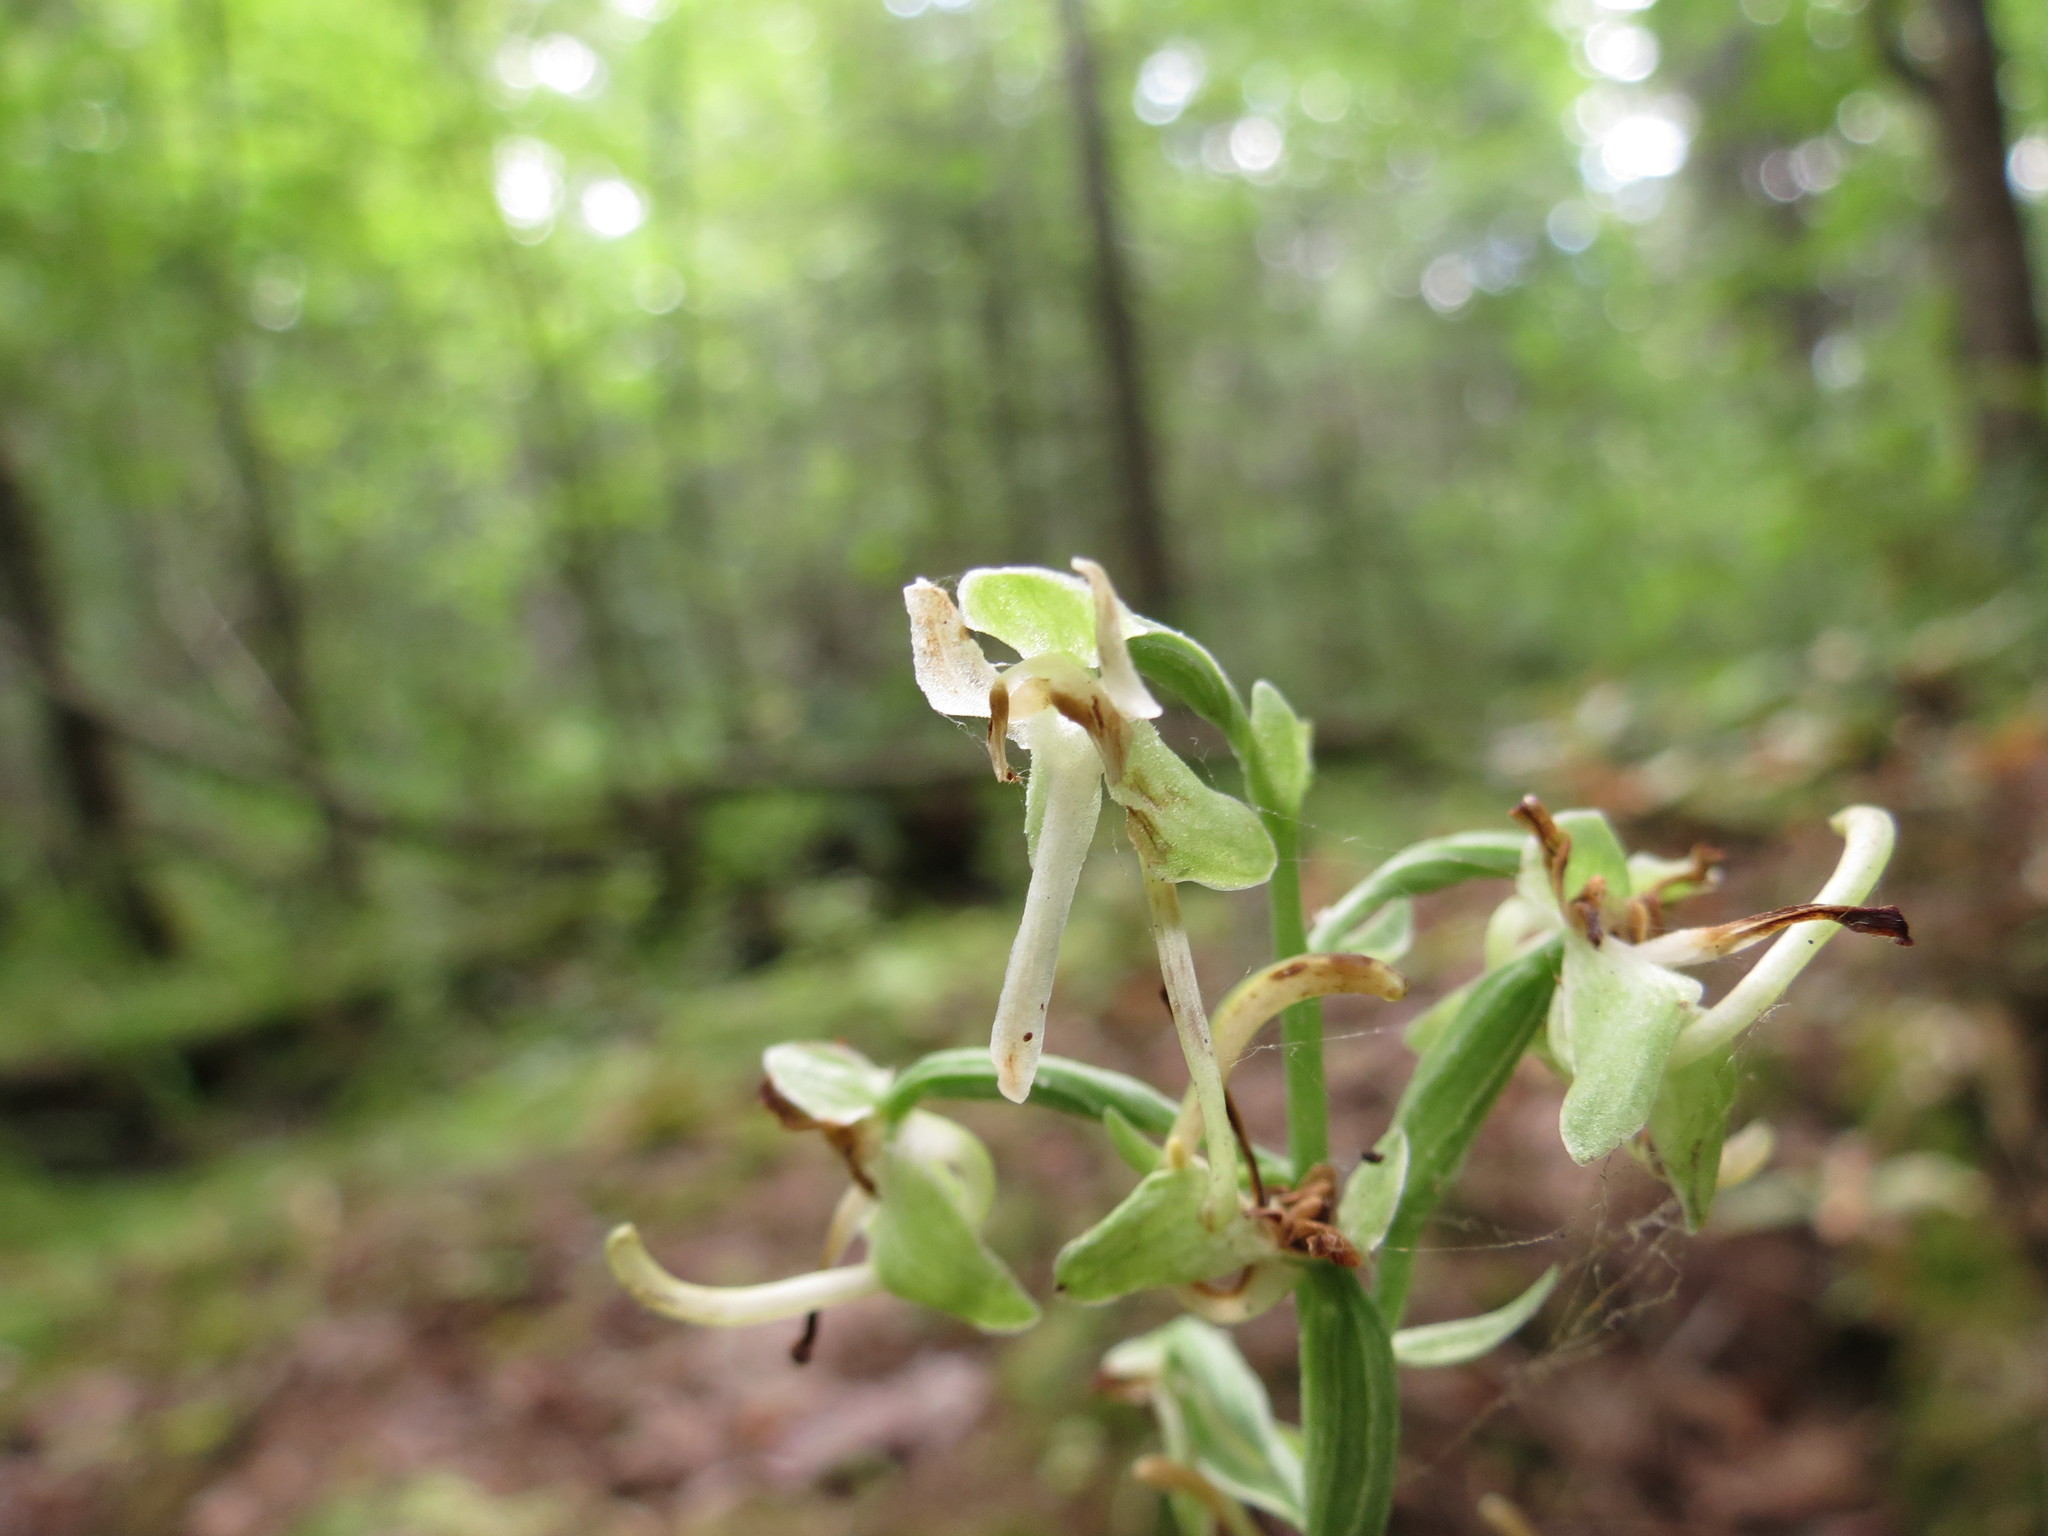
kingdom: Plantae
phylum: Tracheophyta
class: Liliopsida
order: Asparagales
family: Orchidaceae
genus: Platanthera
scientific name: Platanthera orbiculata
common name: Large round-leaved orchid
